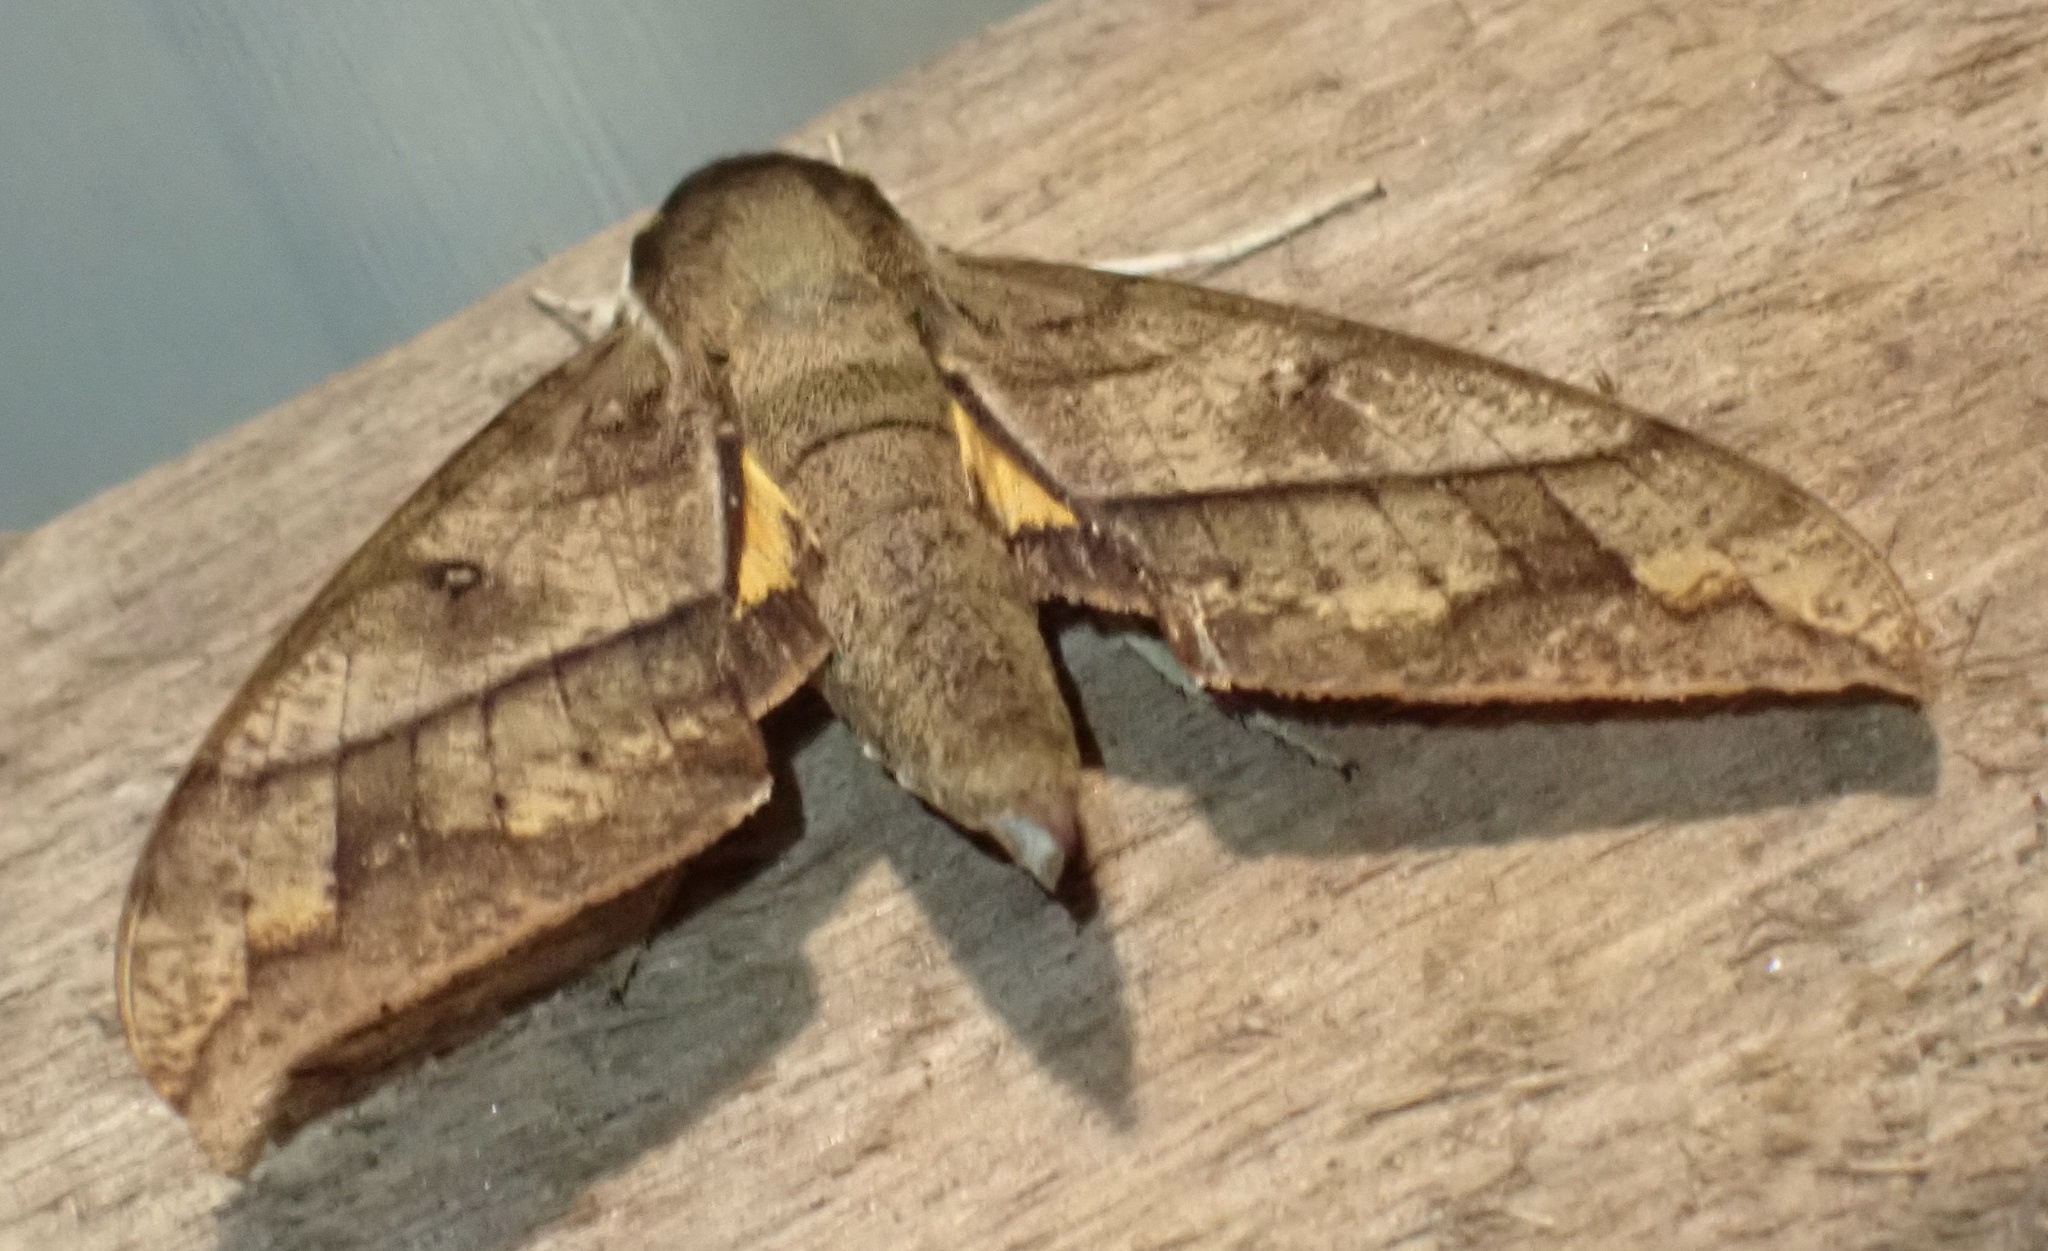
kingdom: Animalia
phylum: Arthropoda
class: Insecta
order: Lepidoptera
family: Sphingidae
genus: Gnathothlibus
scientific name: Gnathothlibus meeki
